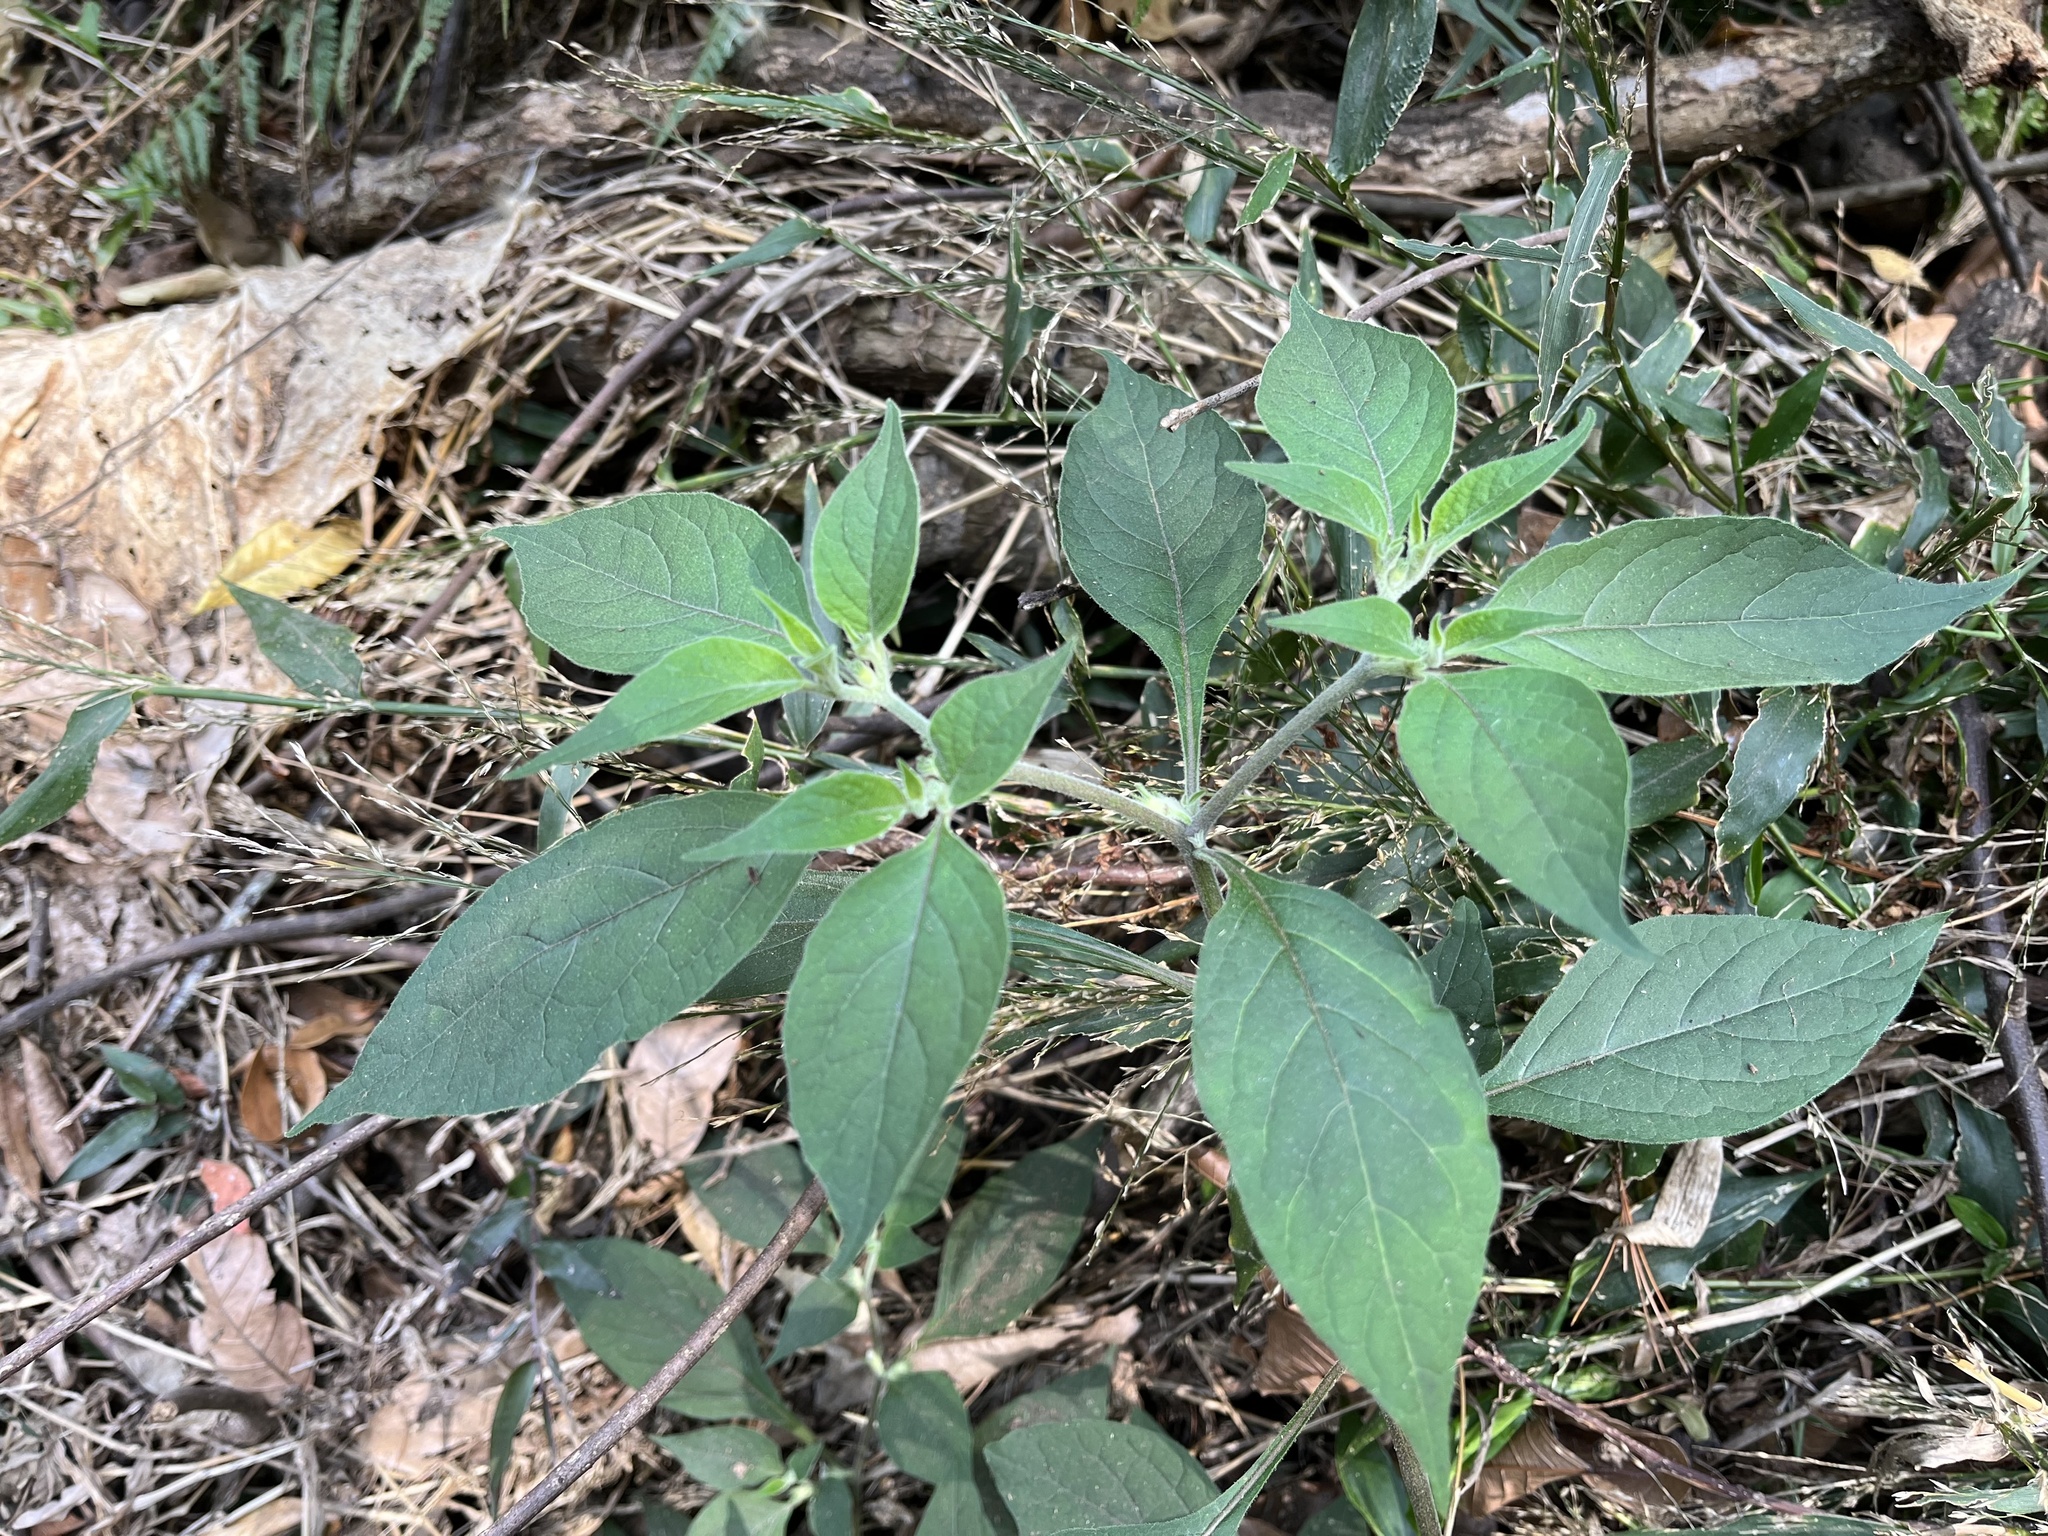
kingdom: Plantae
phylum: Tracheophyta
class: Magnoliopsida
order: Solanales
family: Solanaceae
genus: Lycianthes
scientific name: Lycianthes biflora
